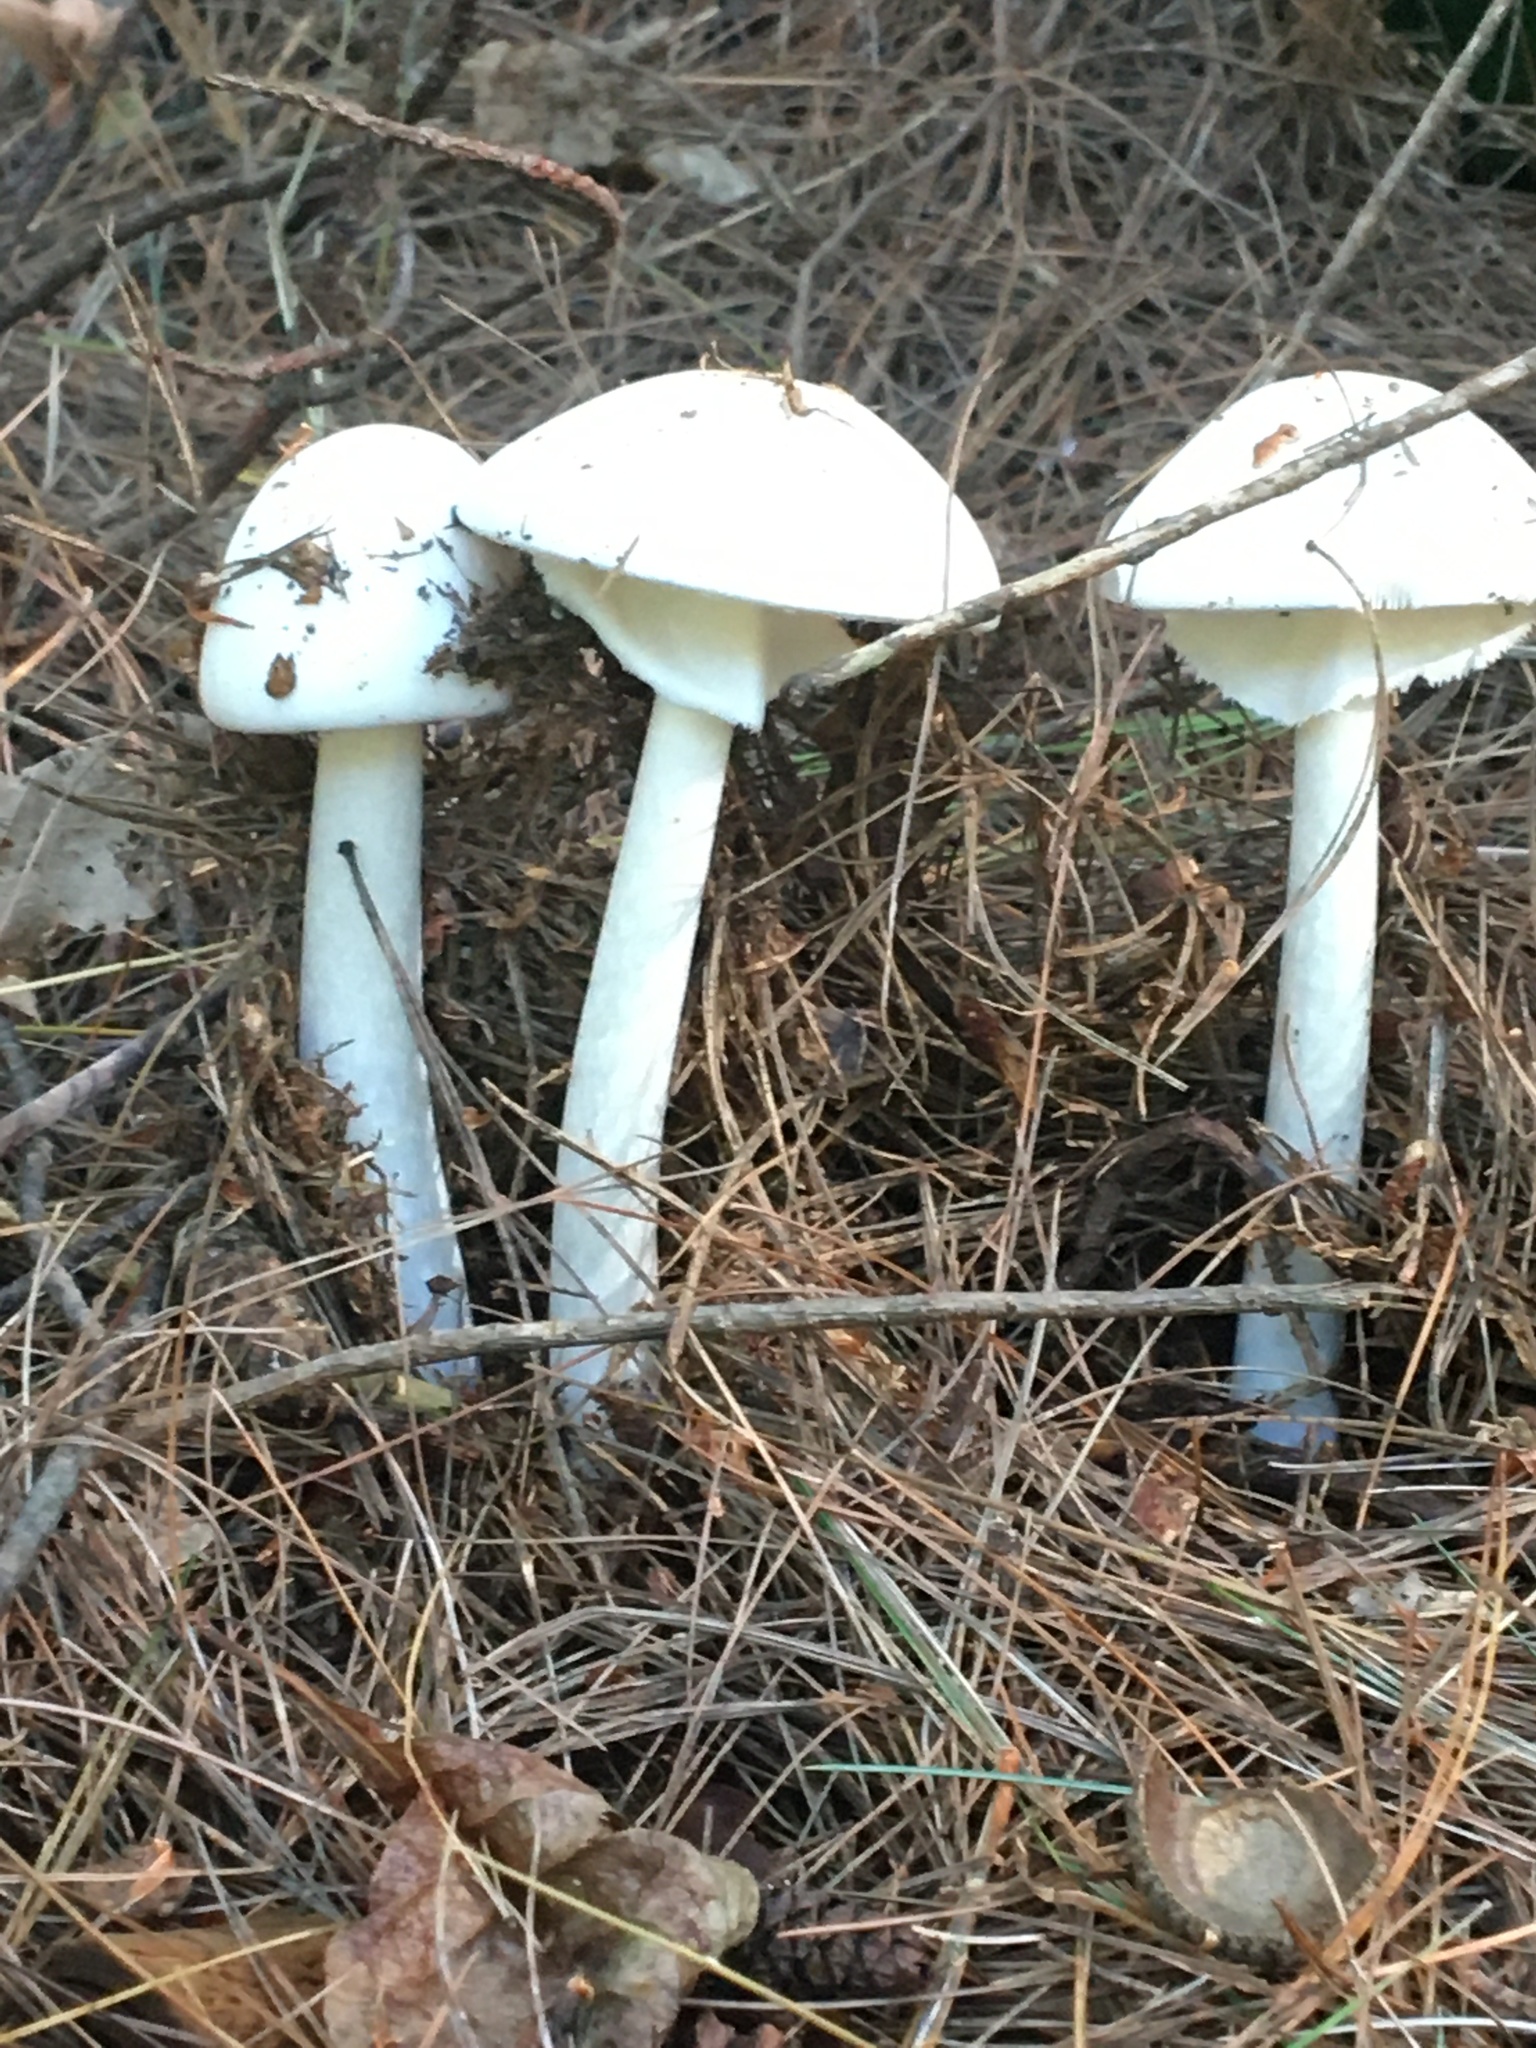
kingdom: Fungi
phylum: Basidiomycota
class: Agaricomycetes
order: Agaricales
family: Amanitaceae
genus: Amanita
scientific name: Amanita
